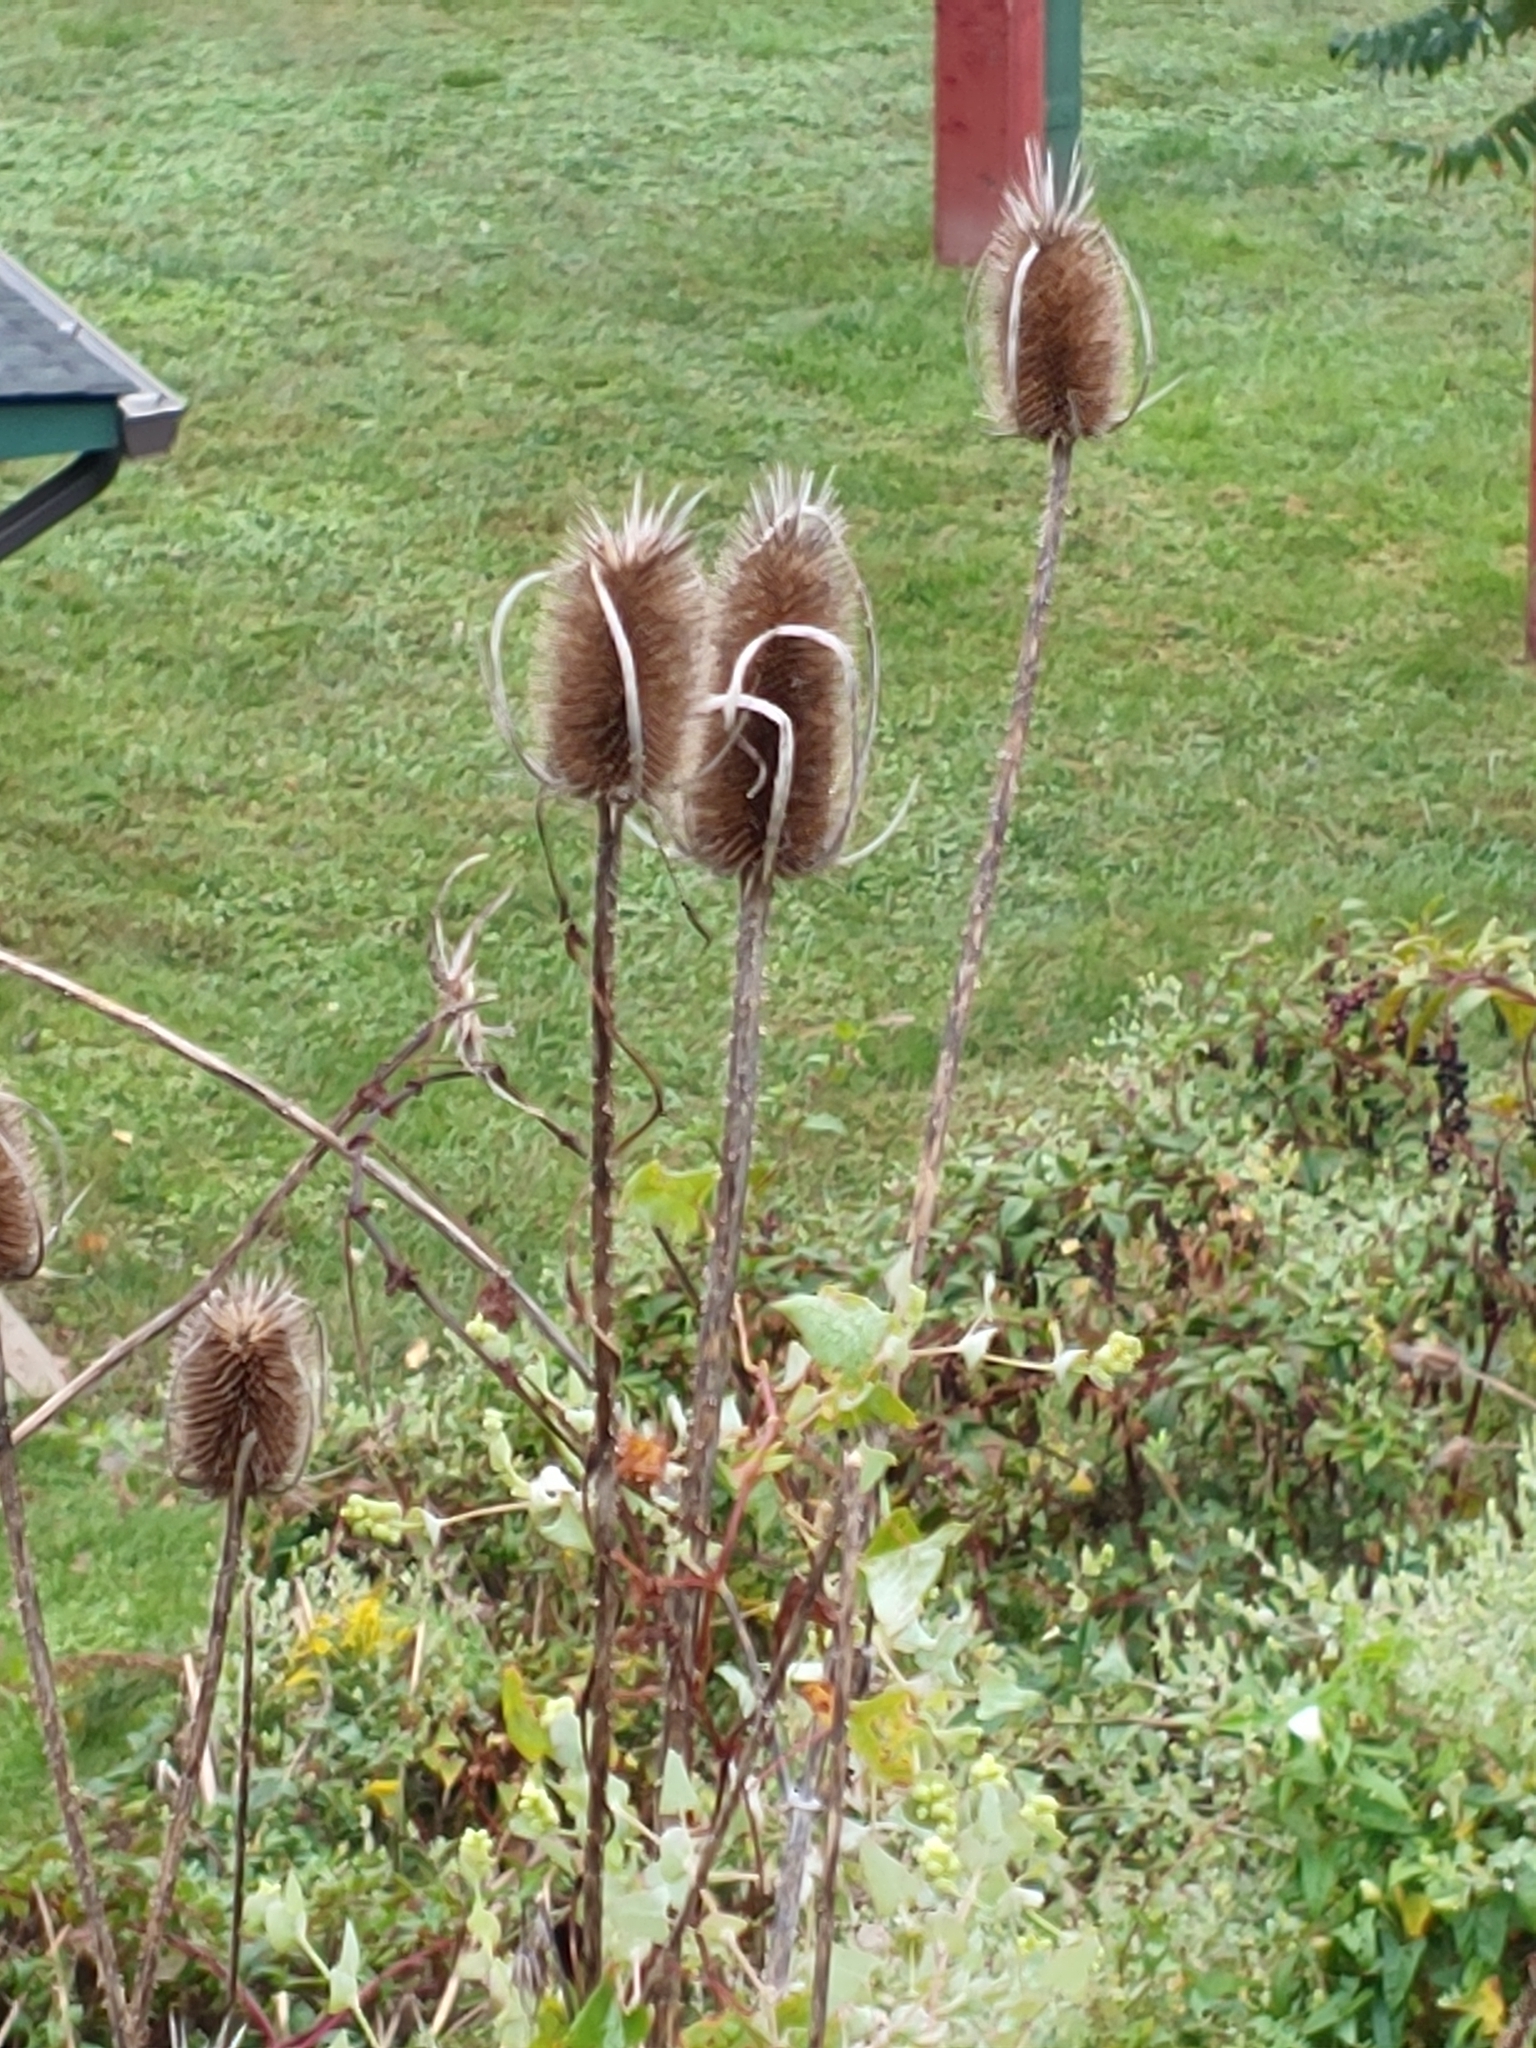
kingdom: Plantae
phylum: Tracheophyta
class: Magnoliopsida
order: Dipsacales
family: Caprifoliaceae
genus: Dipsacus
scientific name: Dipsacus fullonum
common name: Teasel
